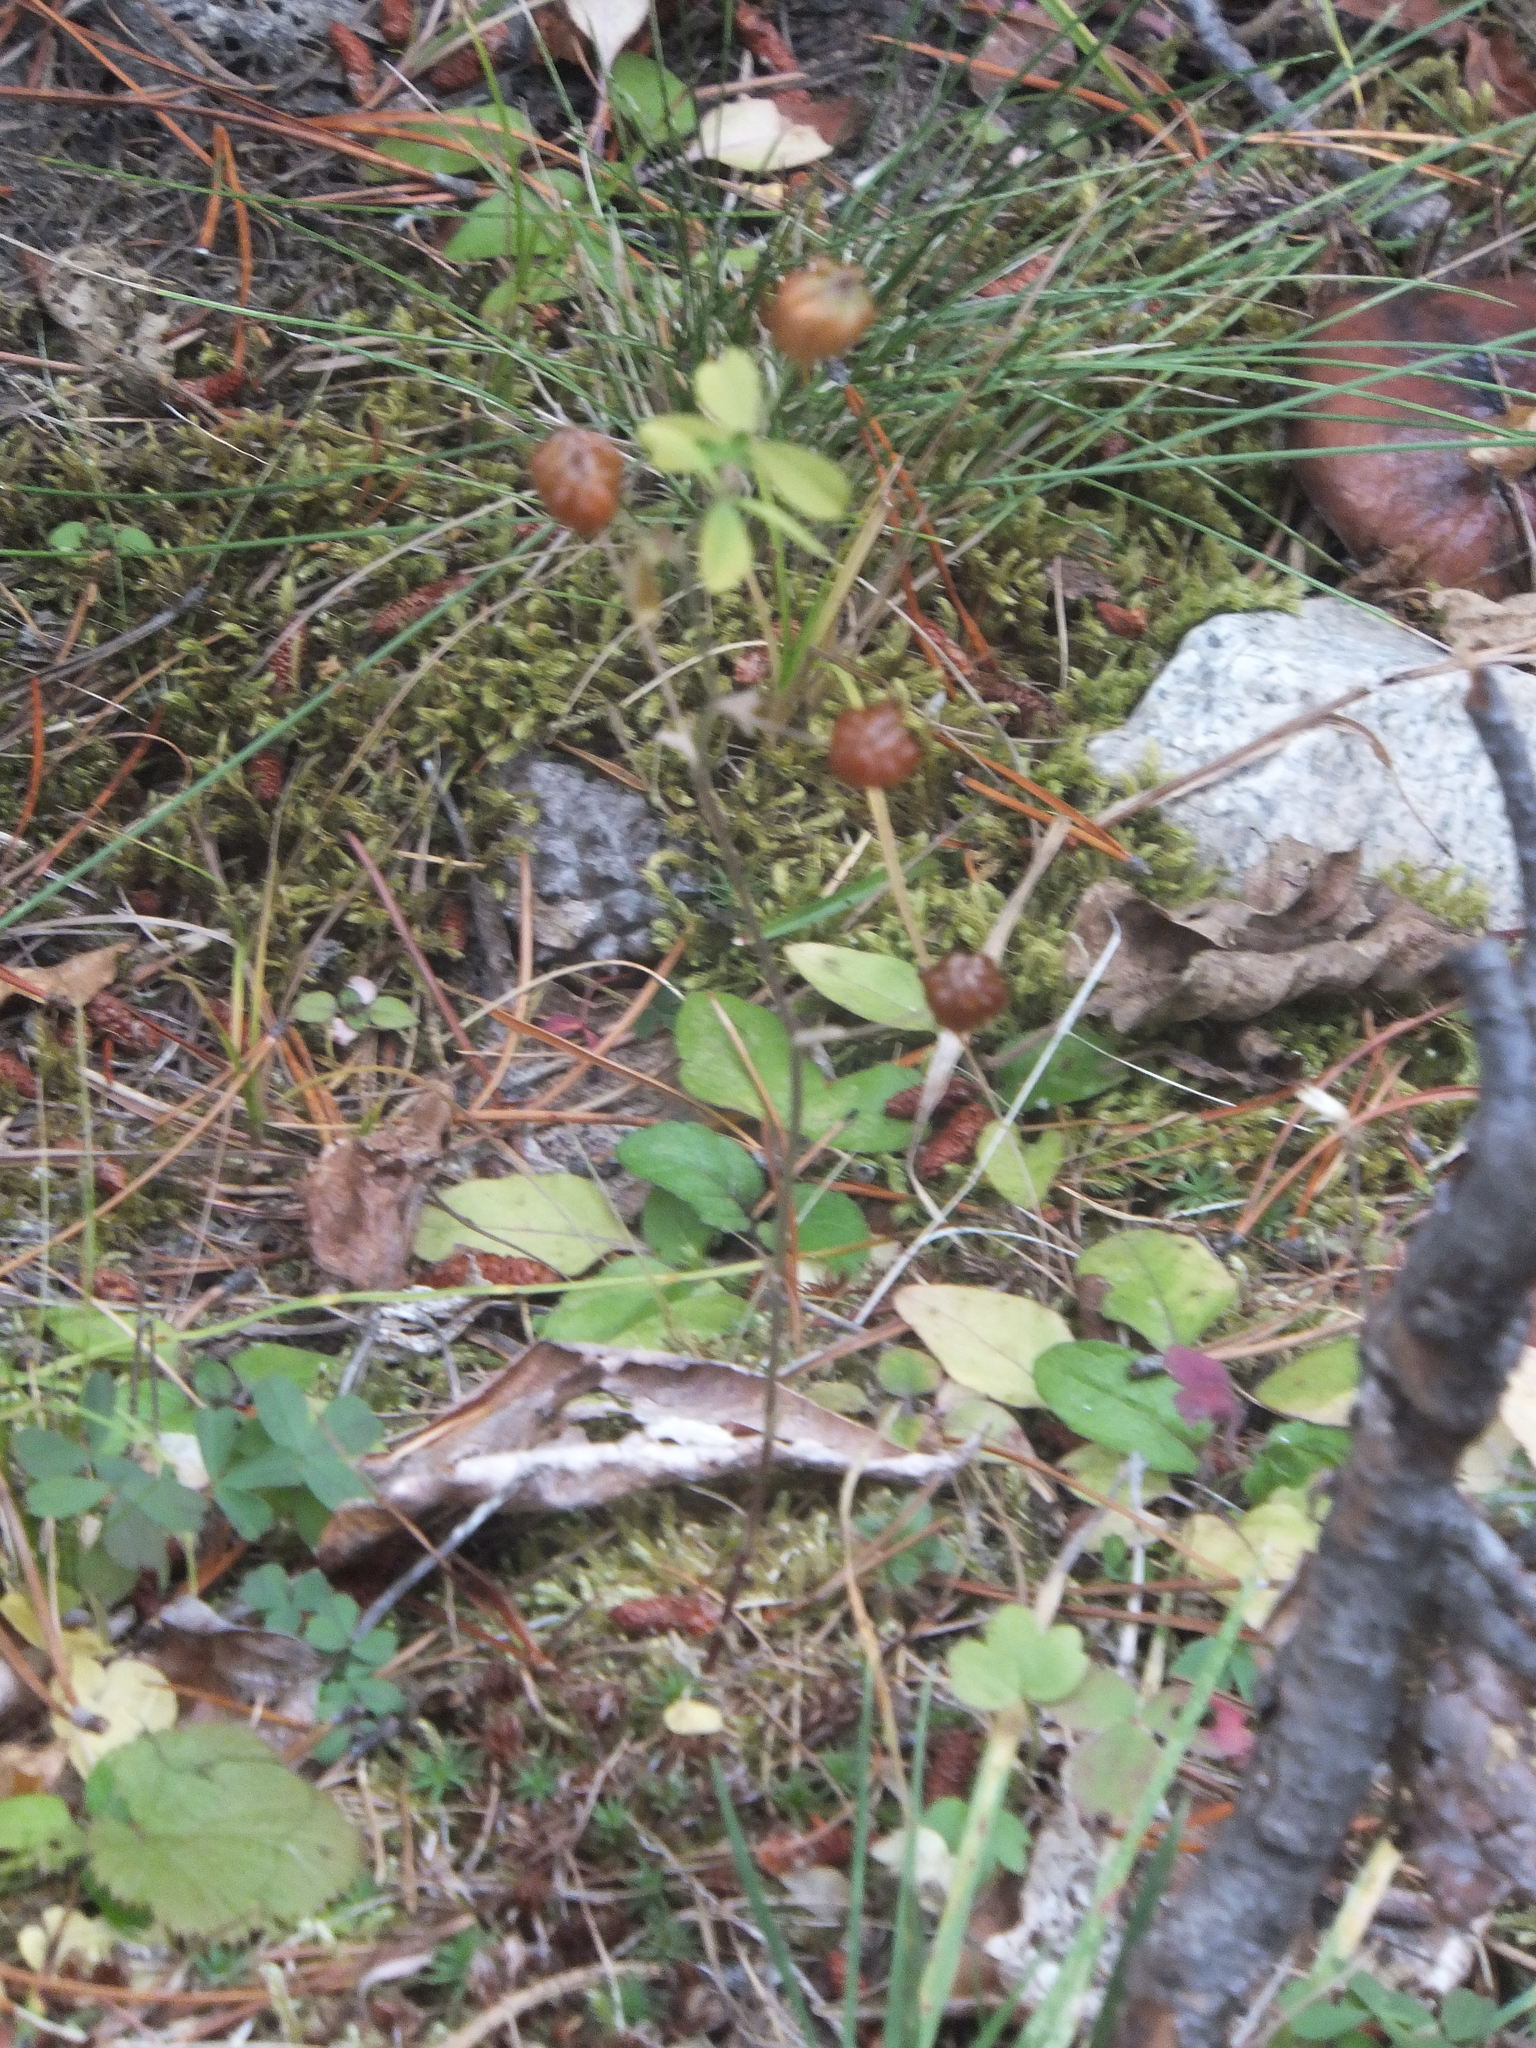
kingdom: Plantae
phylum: Tracheophyta
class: Magnoliopsida
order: Fabales
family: Fabaceae
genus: Trifolium
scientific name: Trifolium aureum
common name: Golden clover
